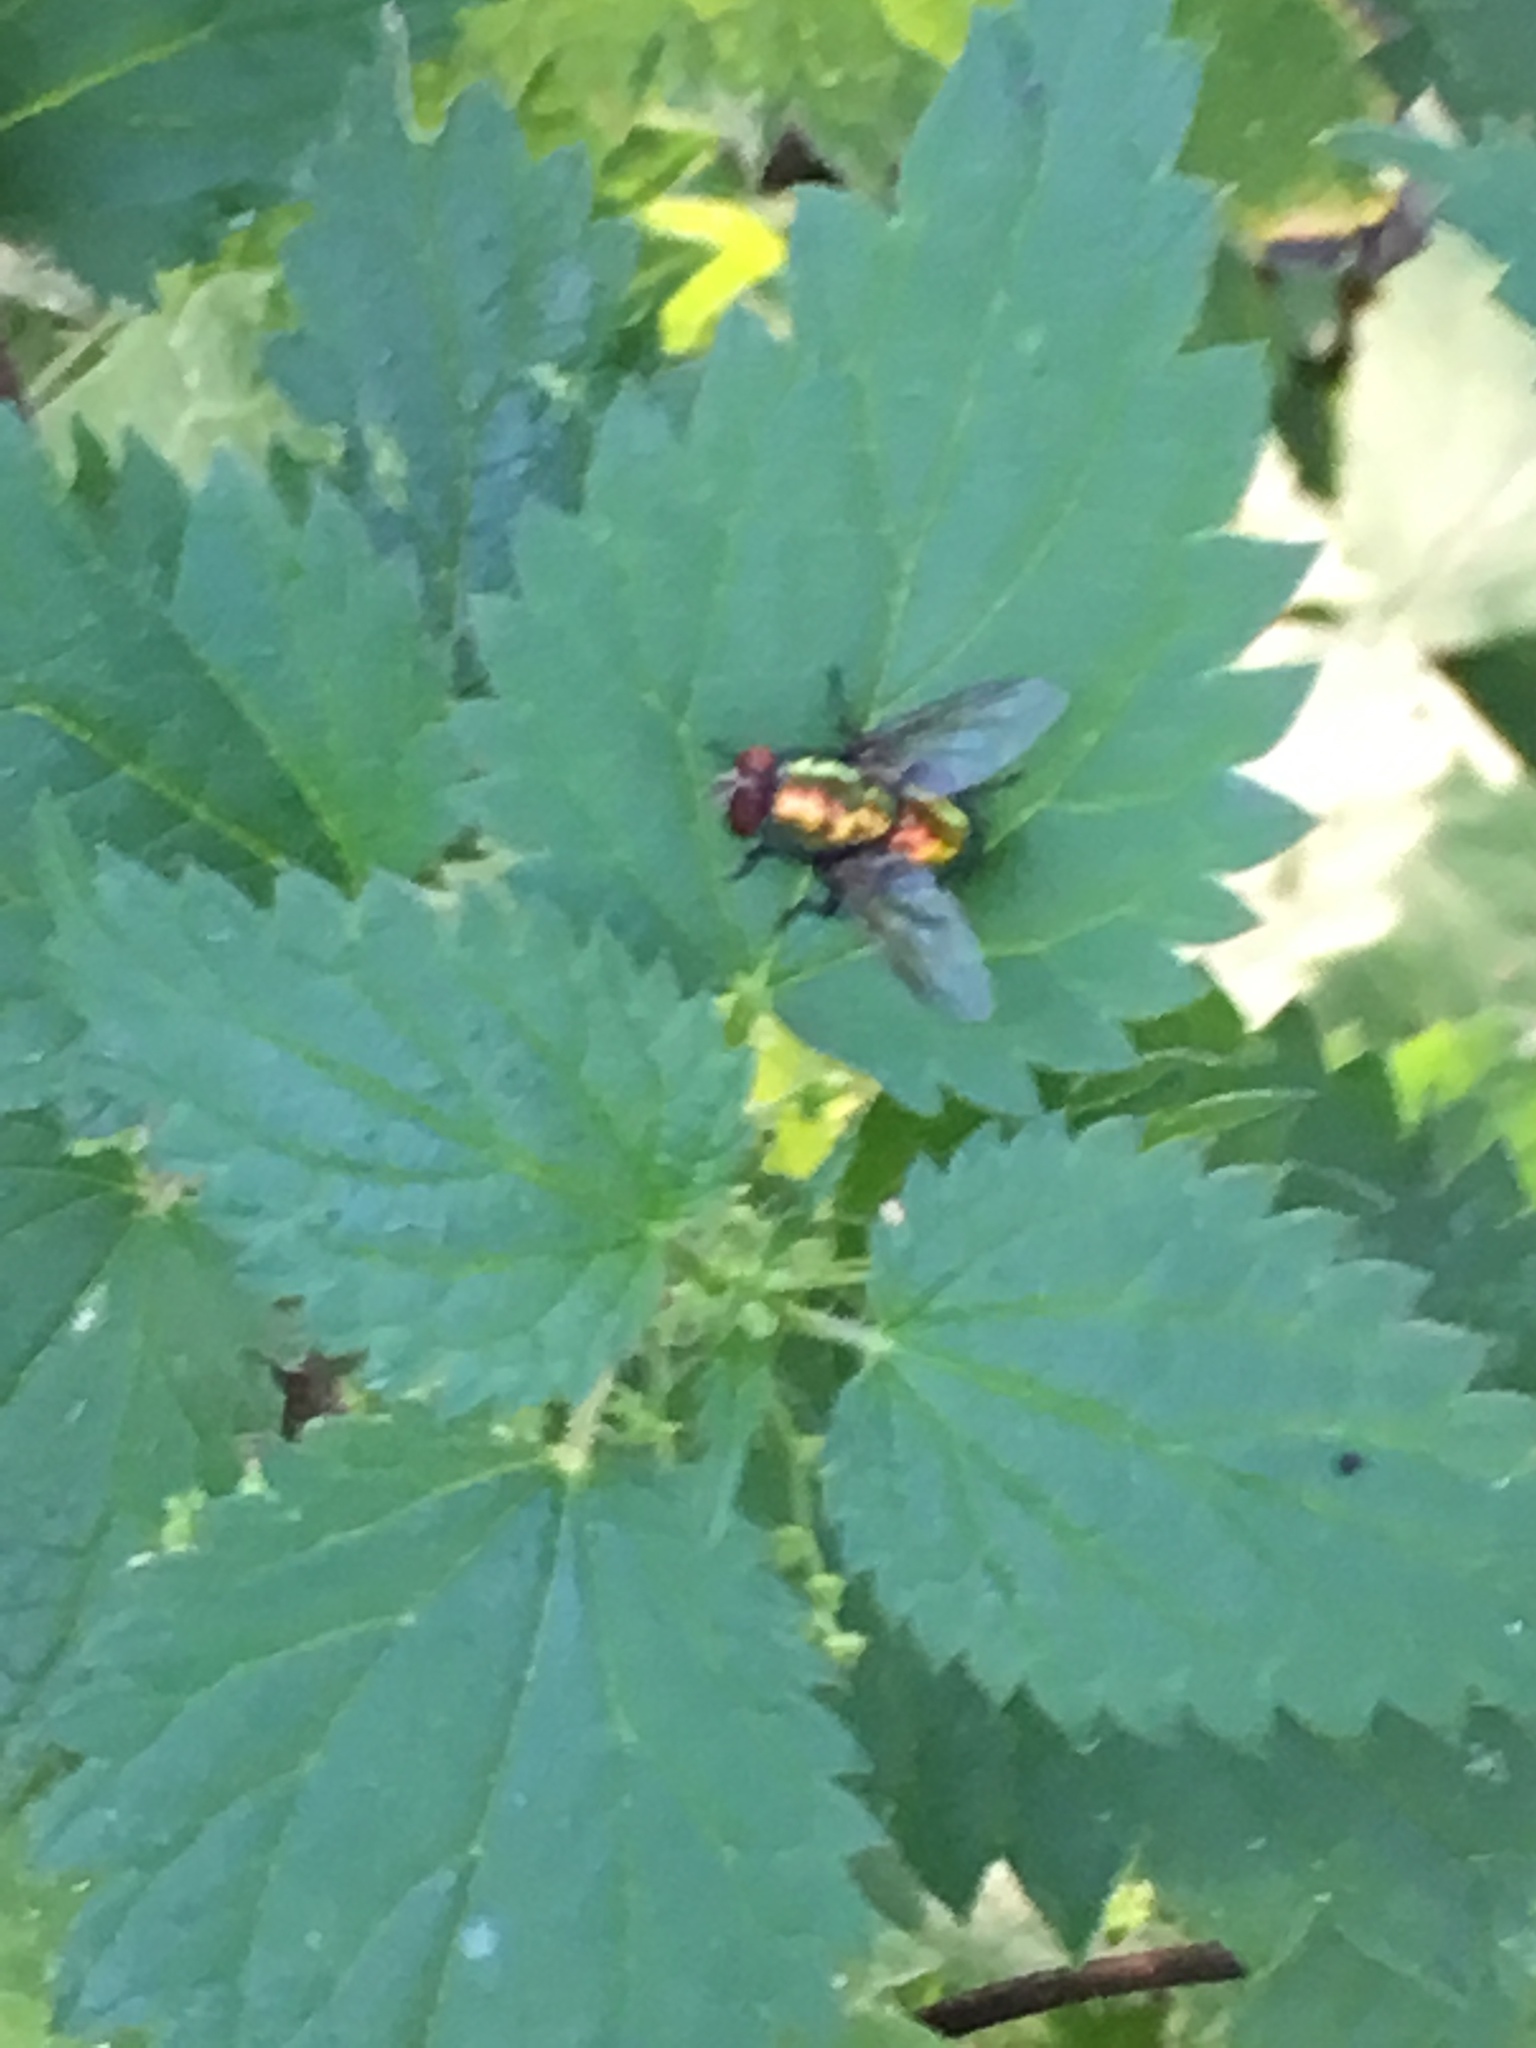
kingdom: Animalia
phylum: Arthropoda
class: Insecta
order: Diptera
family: Calliphoridae
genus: Lucilia
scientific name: Lucilia
